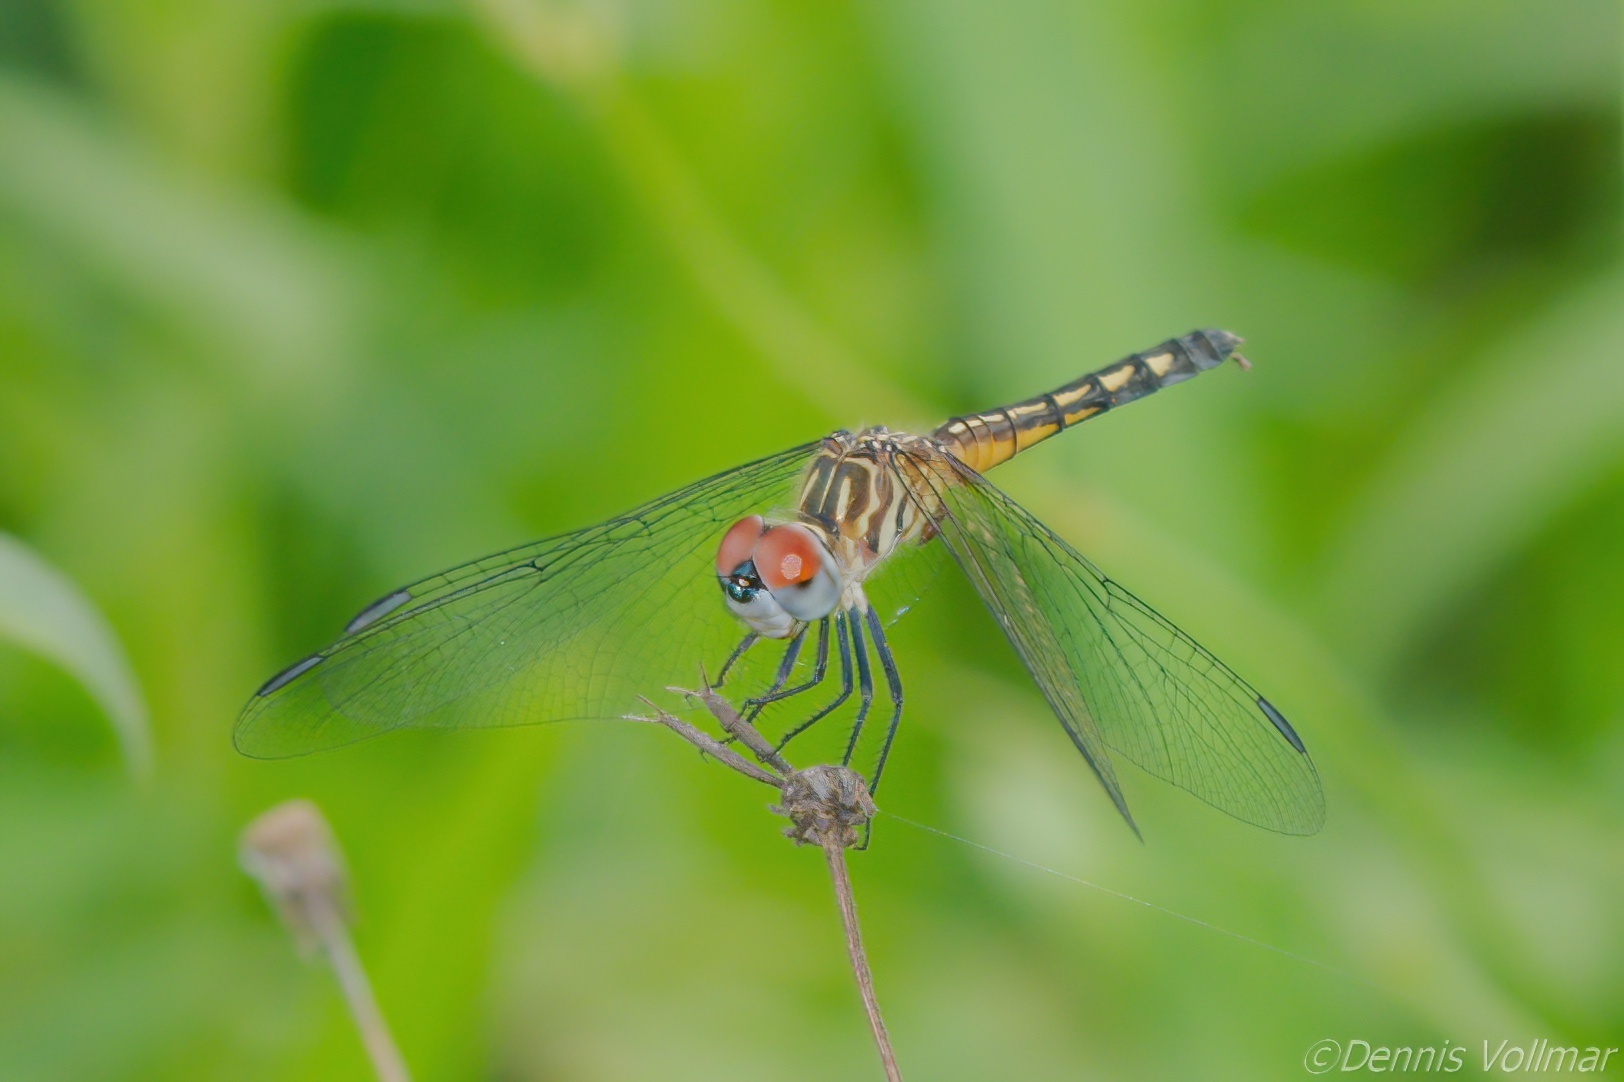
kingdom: Animalia
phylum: Arthropoda
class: Insecta
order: Odonata
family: Libellulidae
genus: Pachydiplax
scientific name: Pachydiplax longipennis
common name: Blue dasher
